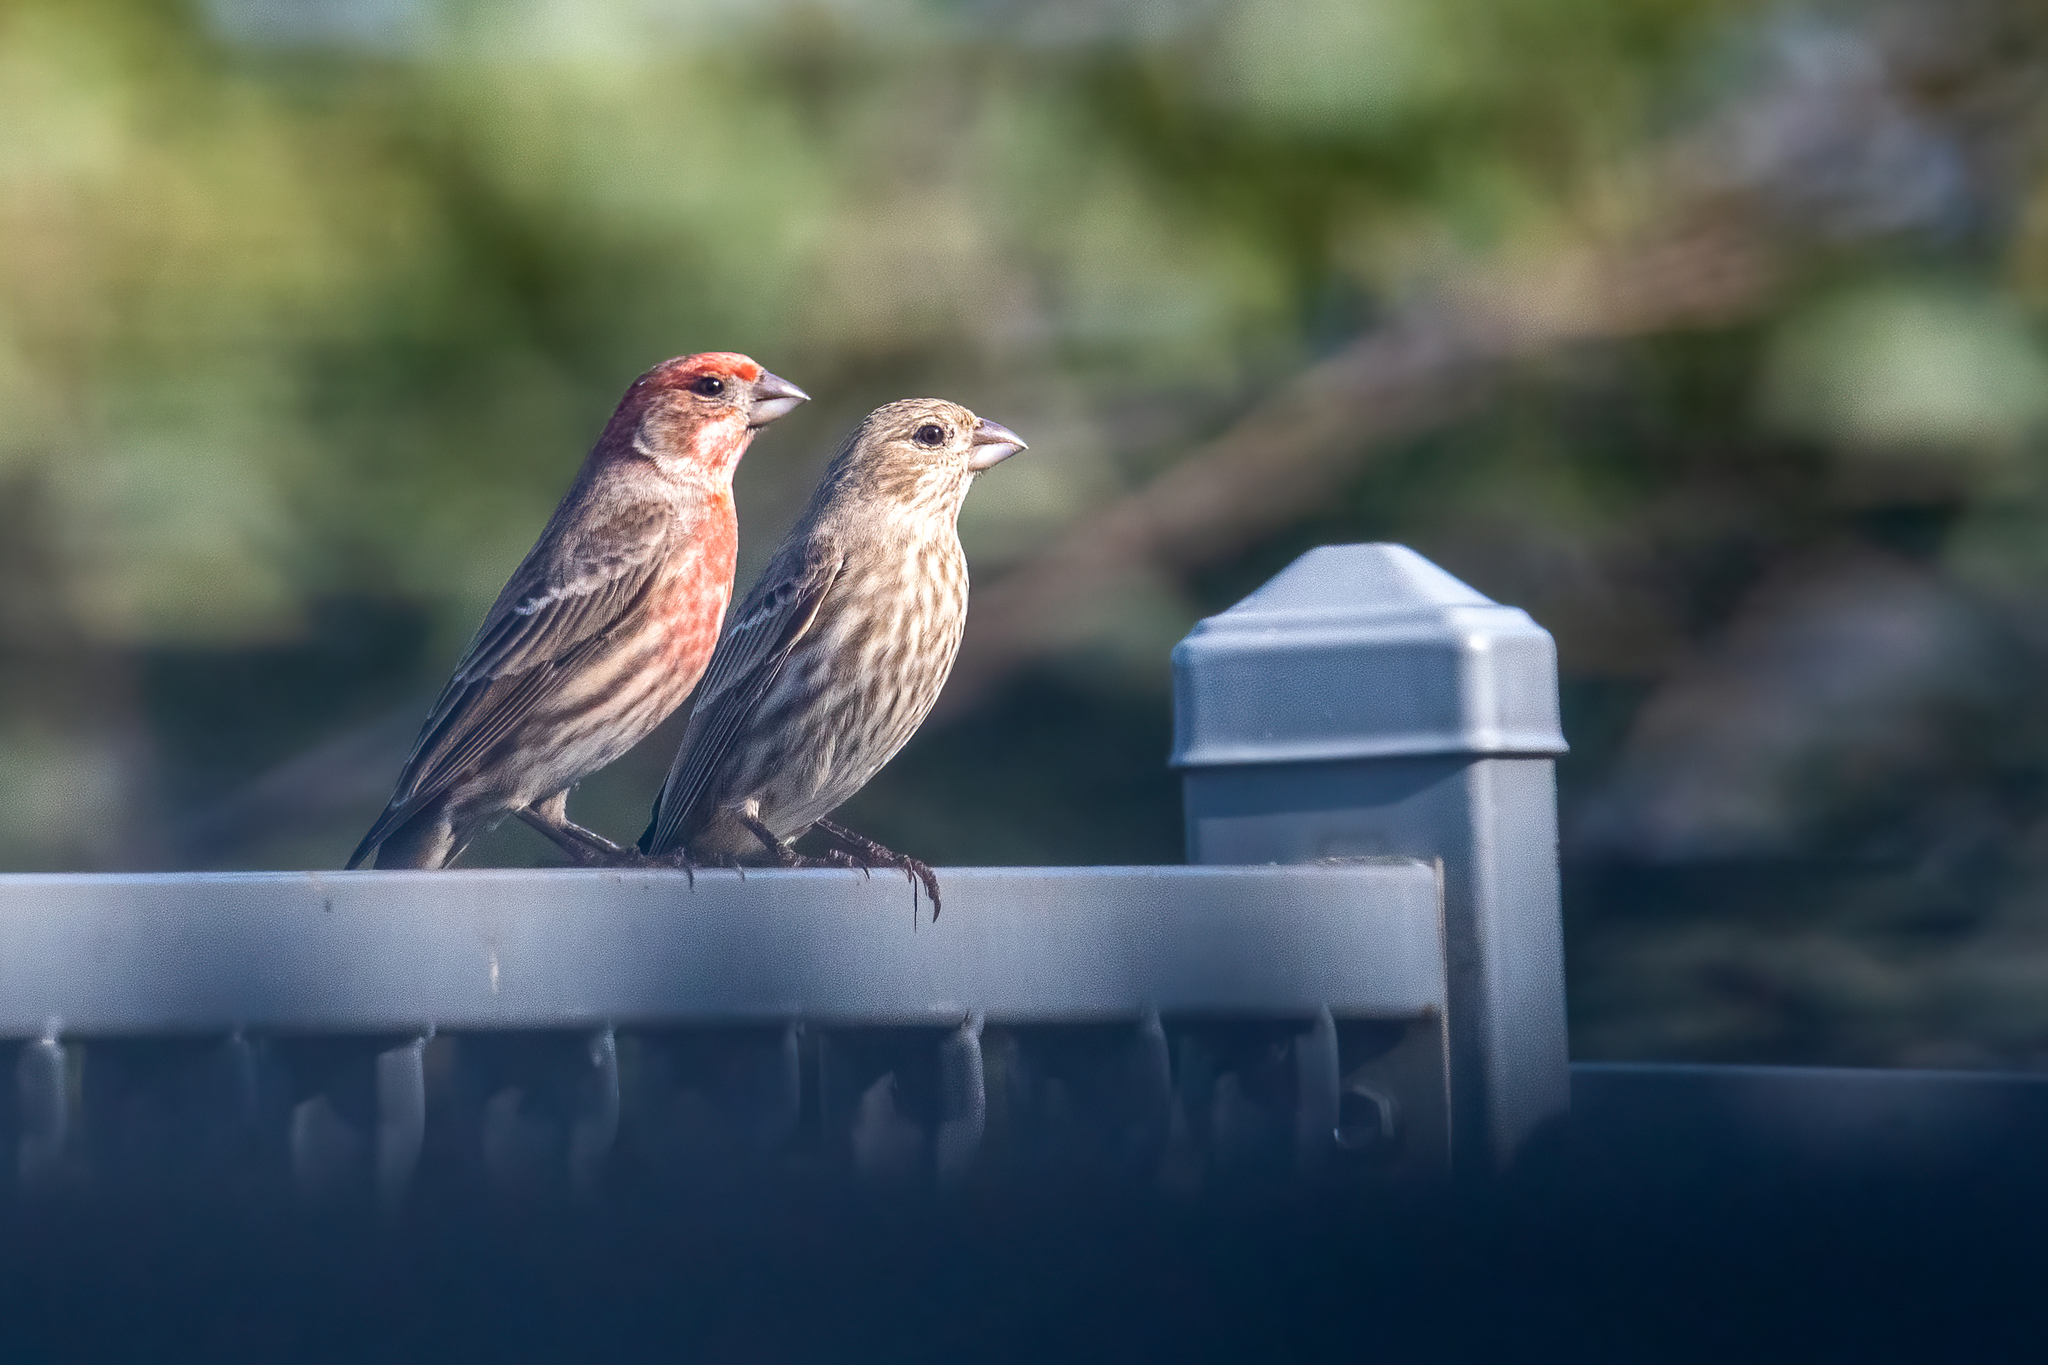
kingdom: Animalia
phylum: Chordata
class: Aves
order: Passeriformes
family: Fringillidae
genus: Haemorhous
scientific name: Haemorhous mexicanus
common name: House finch
